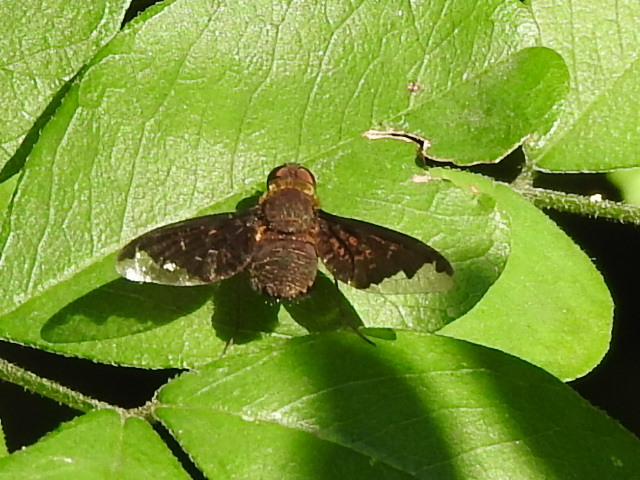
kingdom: Animalia
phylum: Arthropoda
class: Insecta
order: Diptera
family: Bombyliidae
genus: Hemipenthes
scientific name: Hemipenthes sinuosus
